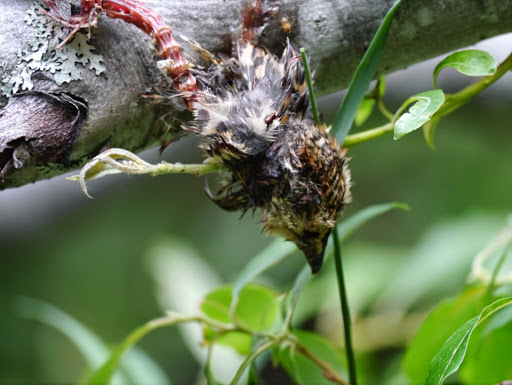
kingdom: Animalia
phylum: Chordata
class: Aves
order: Galliformes
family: Phasianidae
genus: Canachites
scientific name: Canachites canadensis
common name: Spruce grouse
